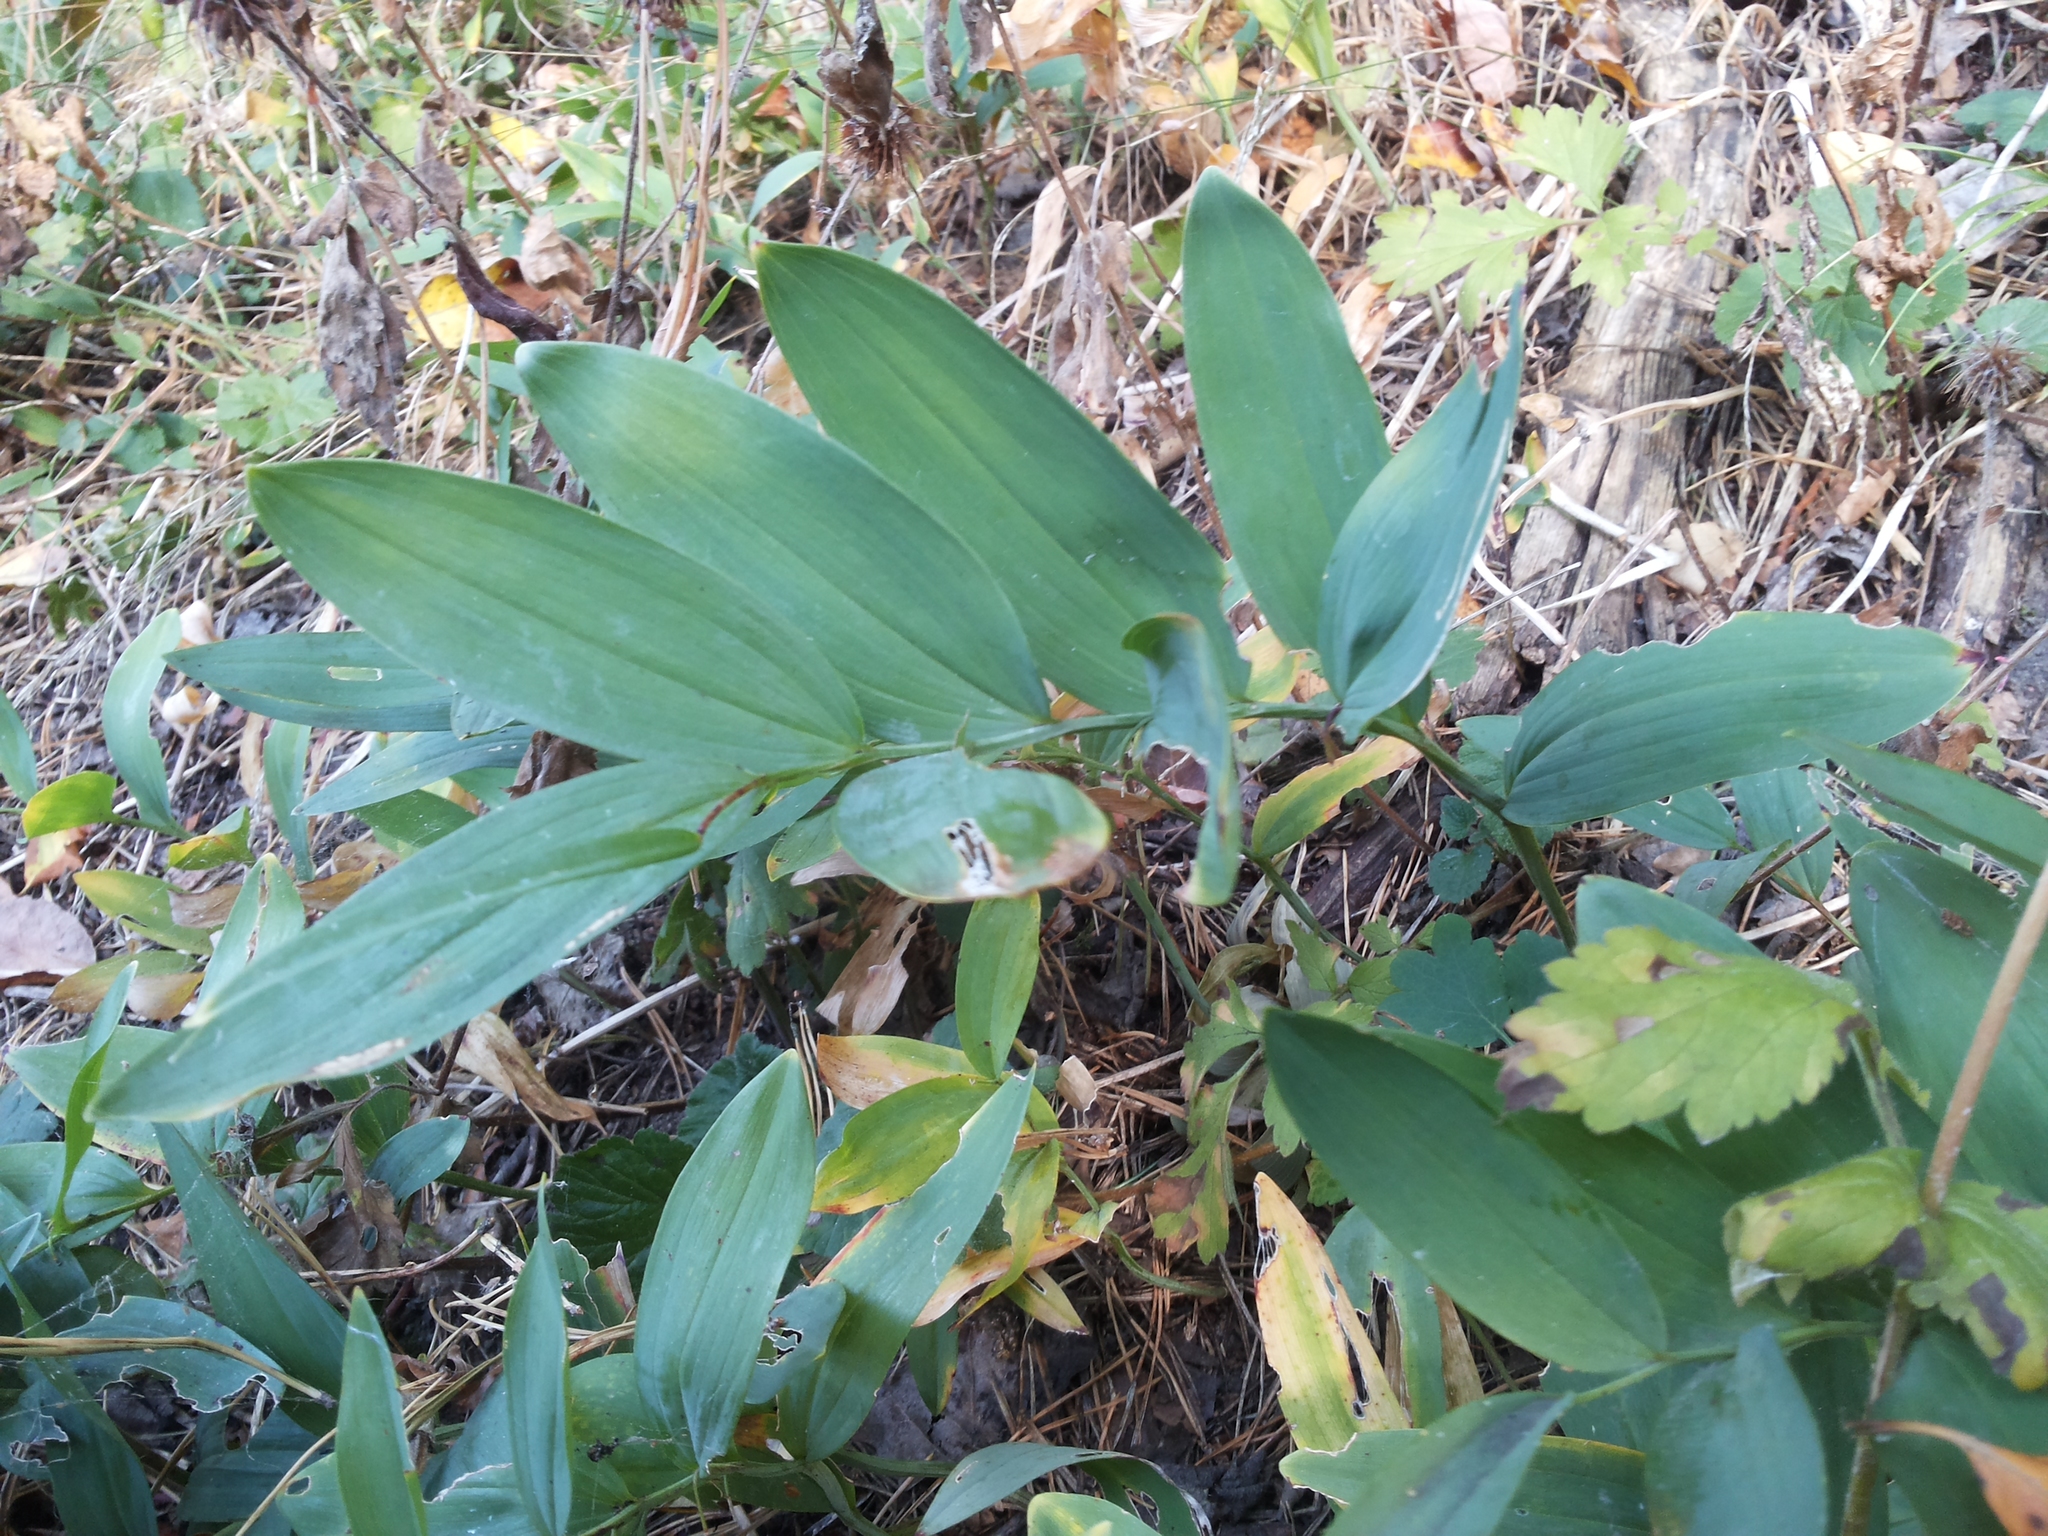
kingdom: Plantae
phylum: Tracheophyta
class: Liliopsida
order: Asparagales
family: Asparagaceae
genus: Polygonatum
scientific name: Polygonatum odoratum
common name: Angular solomon's-seal
